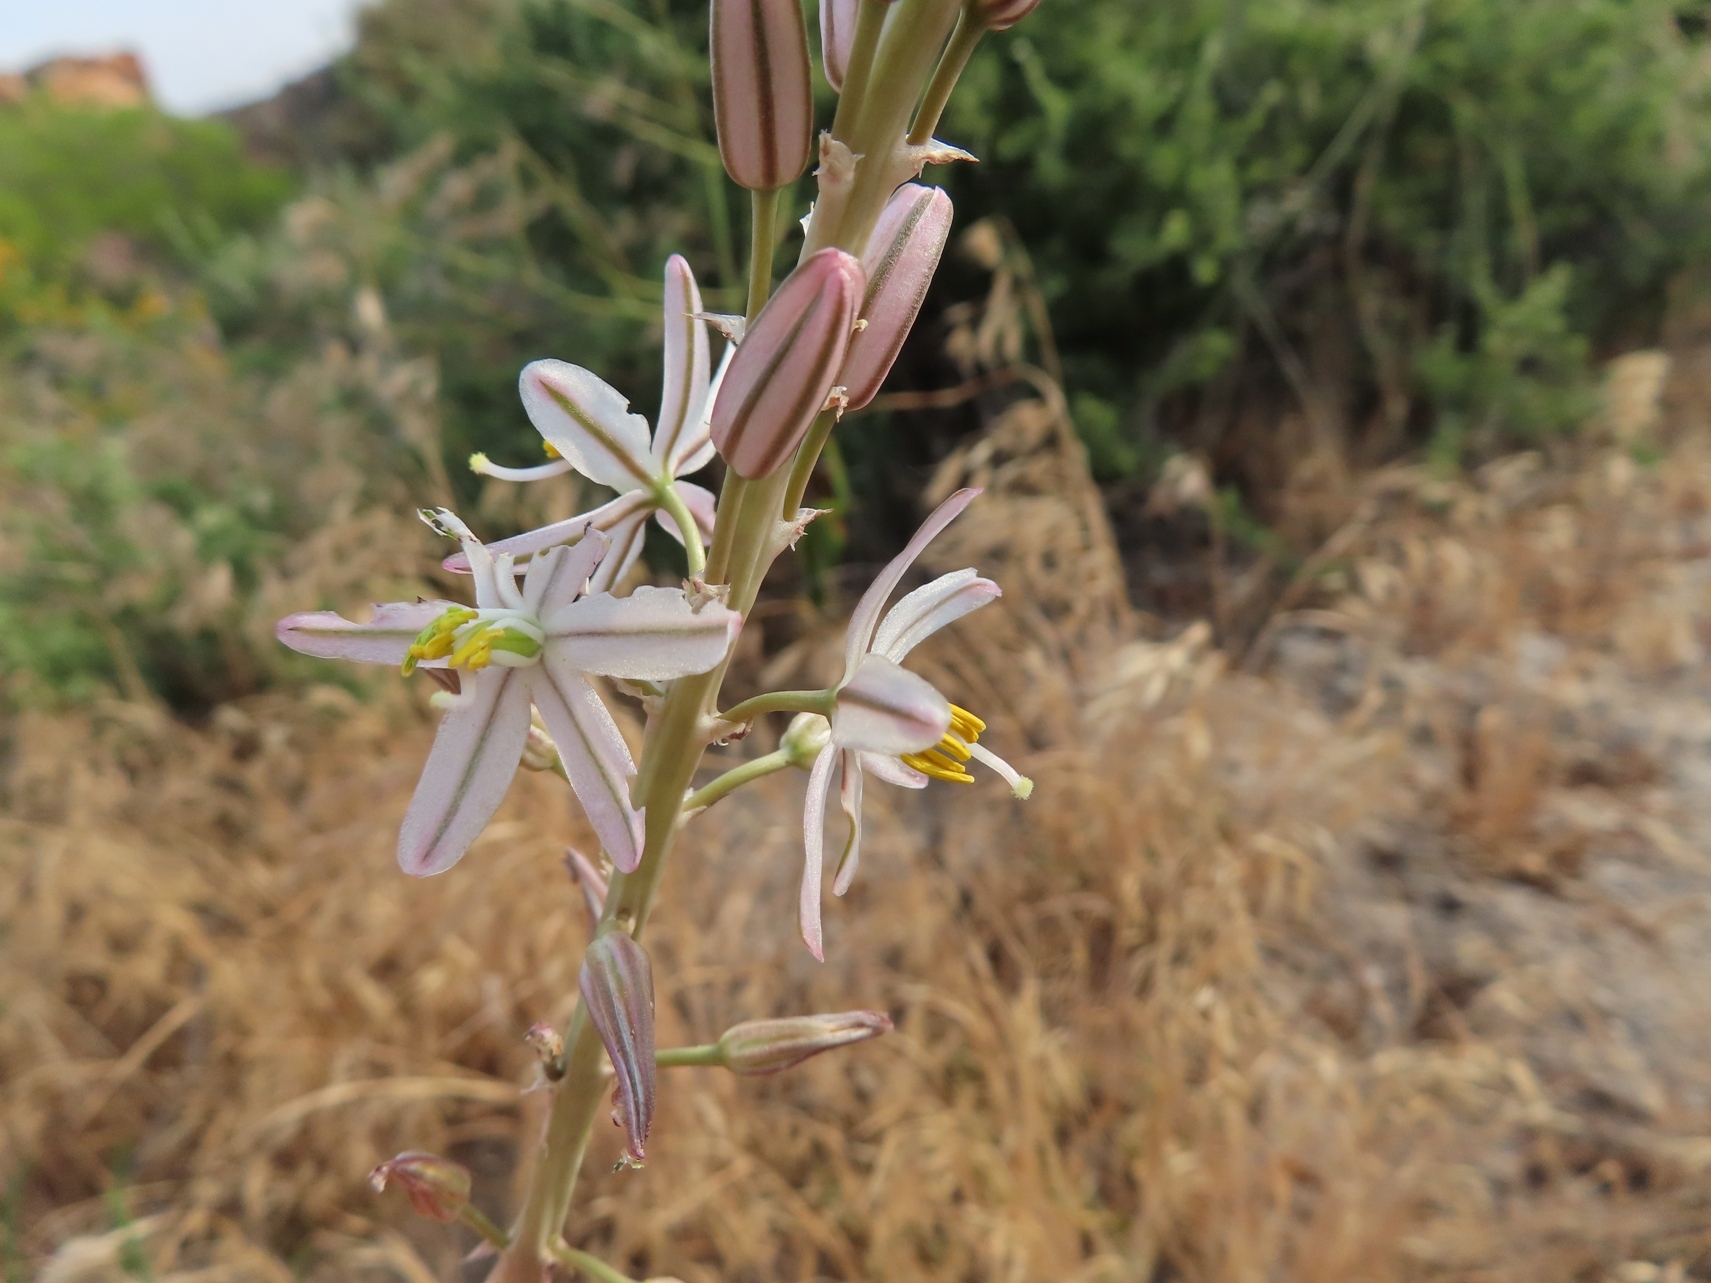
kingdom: Plantae
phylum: Tracheophyta
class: Liliopsida
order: Asparagales
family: Asparagaceae
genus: Drimia
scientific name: Drimia fragrans
